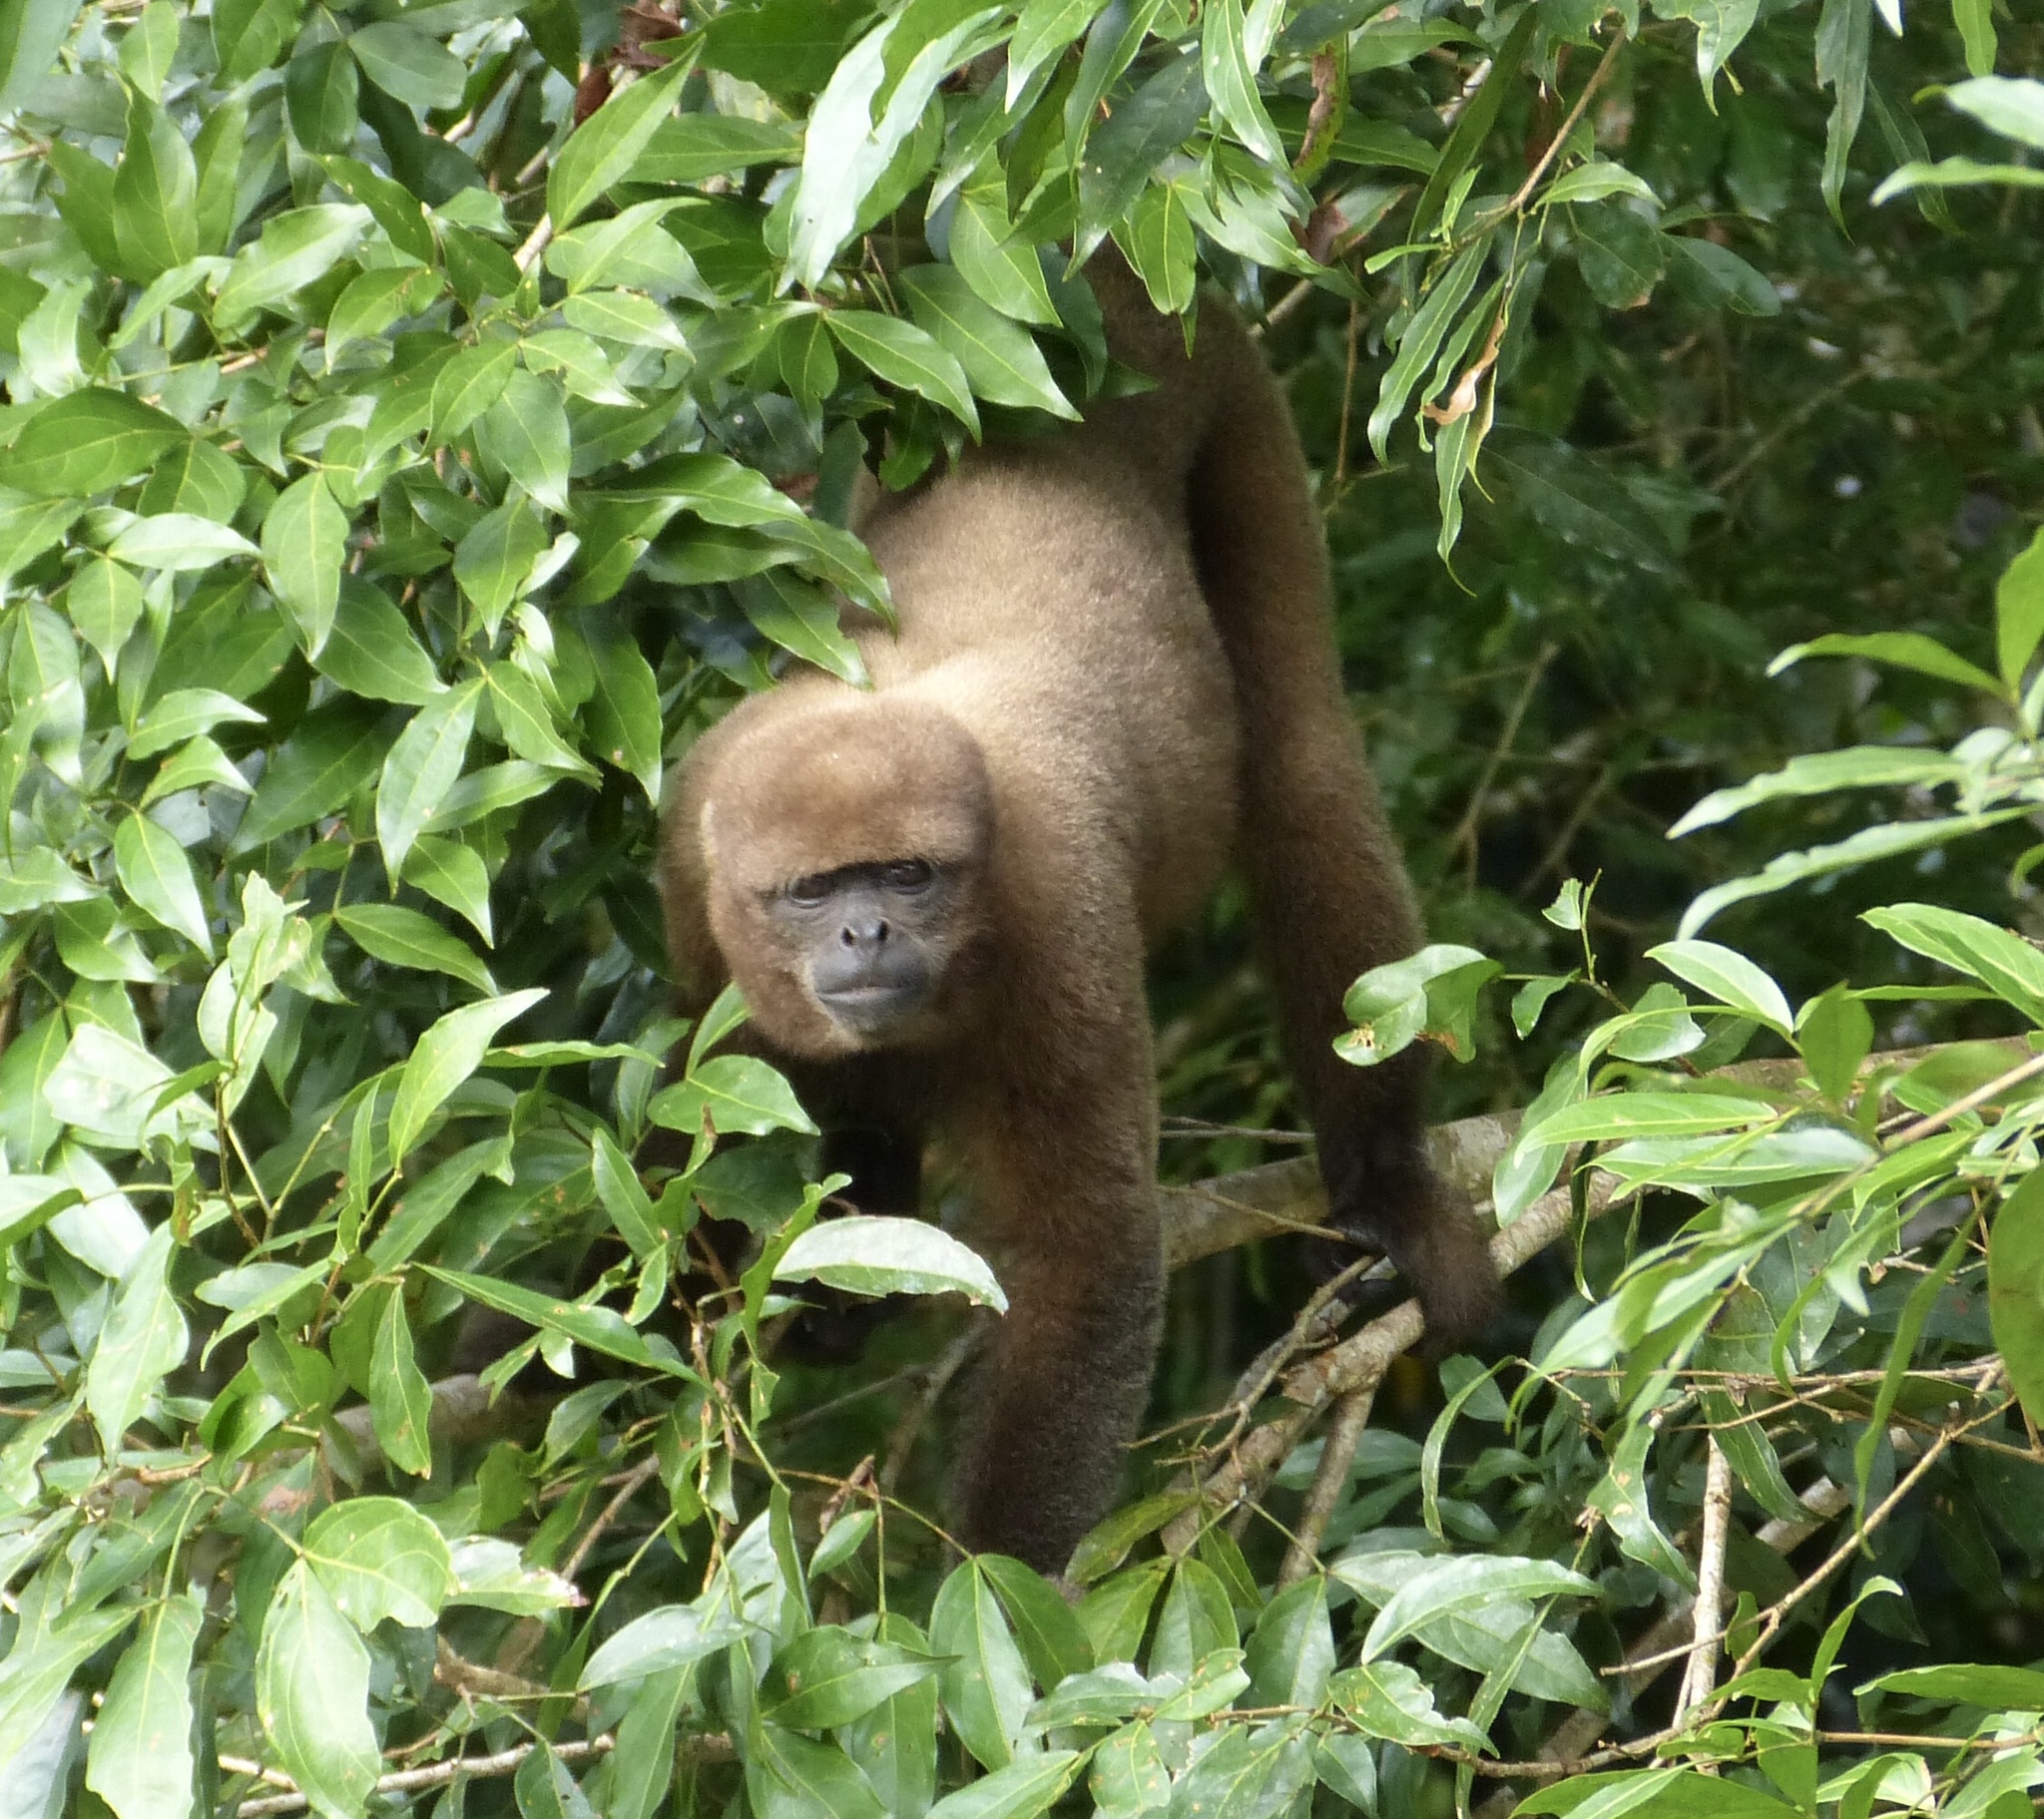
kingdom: Animalia
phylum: Chordata
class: Mammalia
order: Primates
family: Atelidae
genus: Lagothrix
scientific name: Lagothrix lagothricha
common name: Brown woolly monkey
